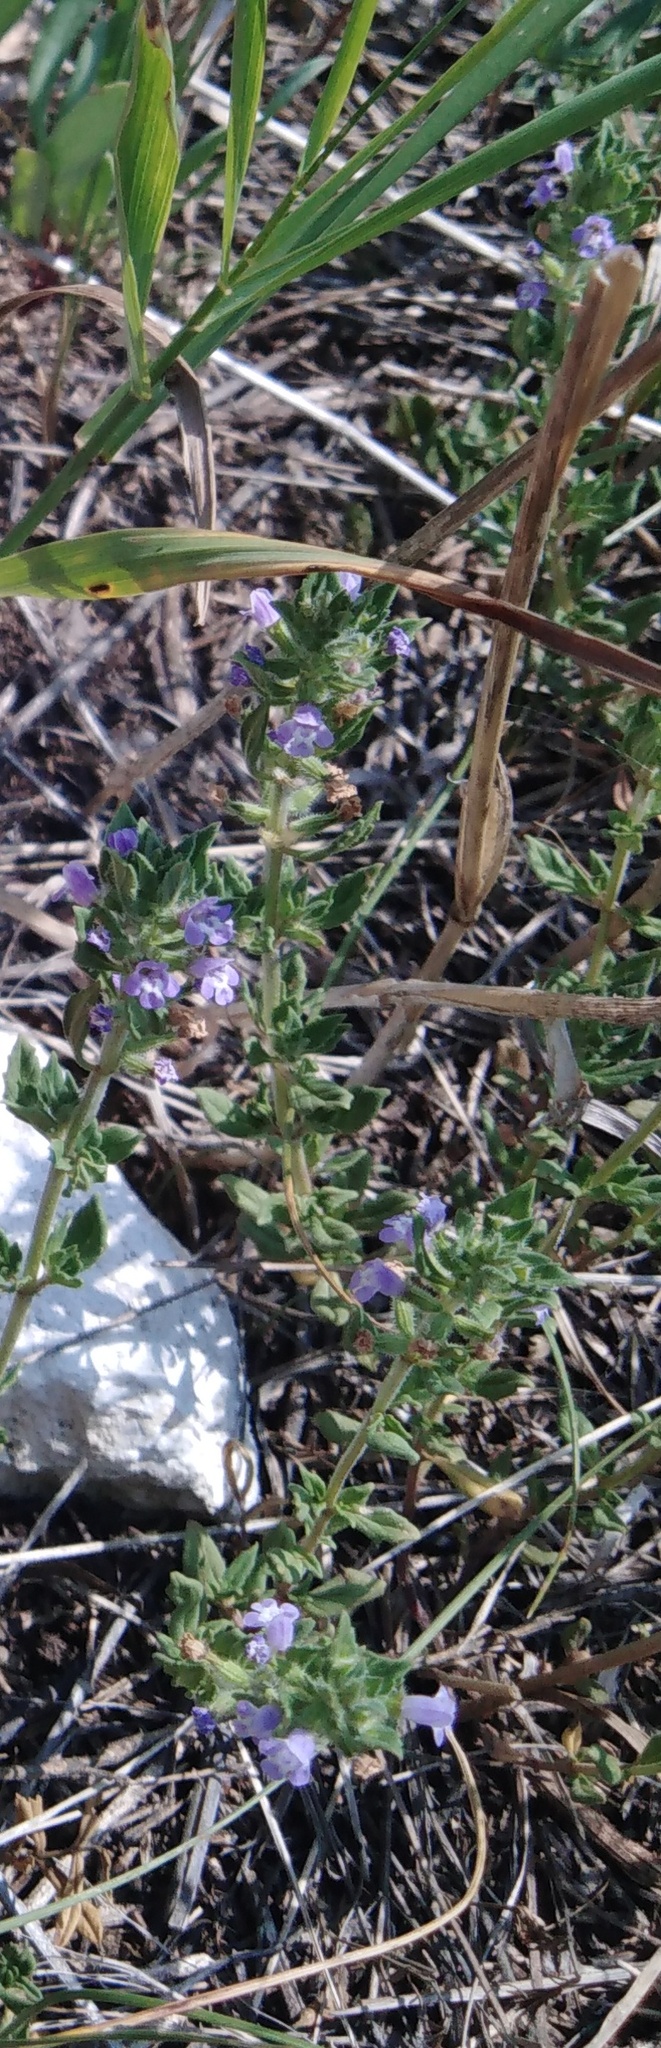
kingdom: Plantae
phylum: Tracheophyta
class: Magnoliopsida
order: Lamiales
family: Lamiaceae
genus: Clinopodium
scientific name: Clinopodium acinos
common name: Basil thyme
